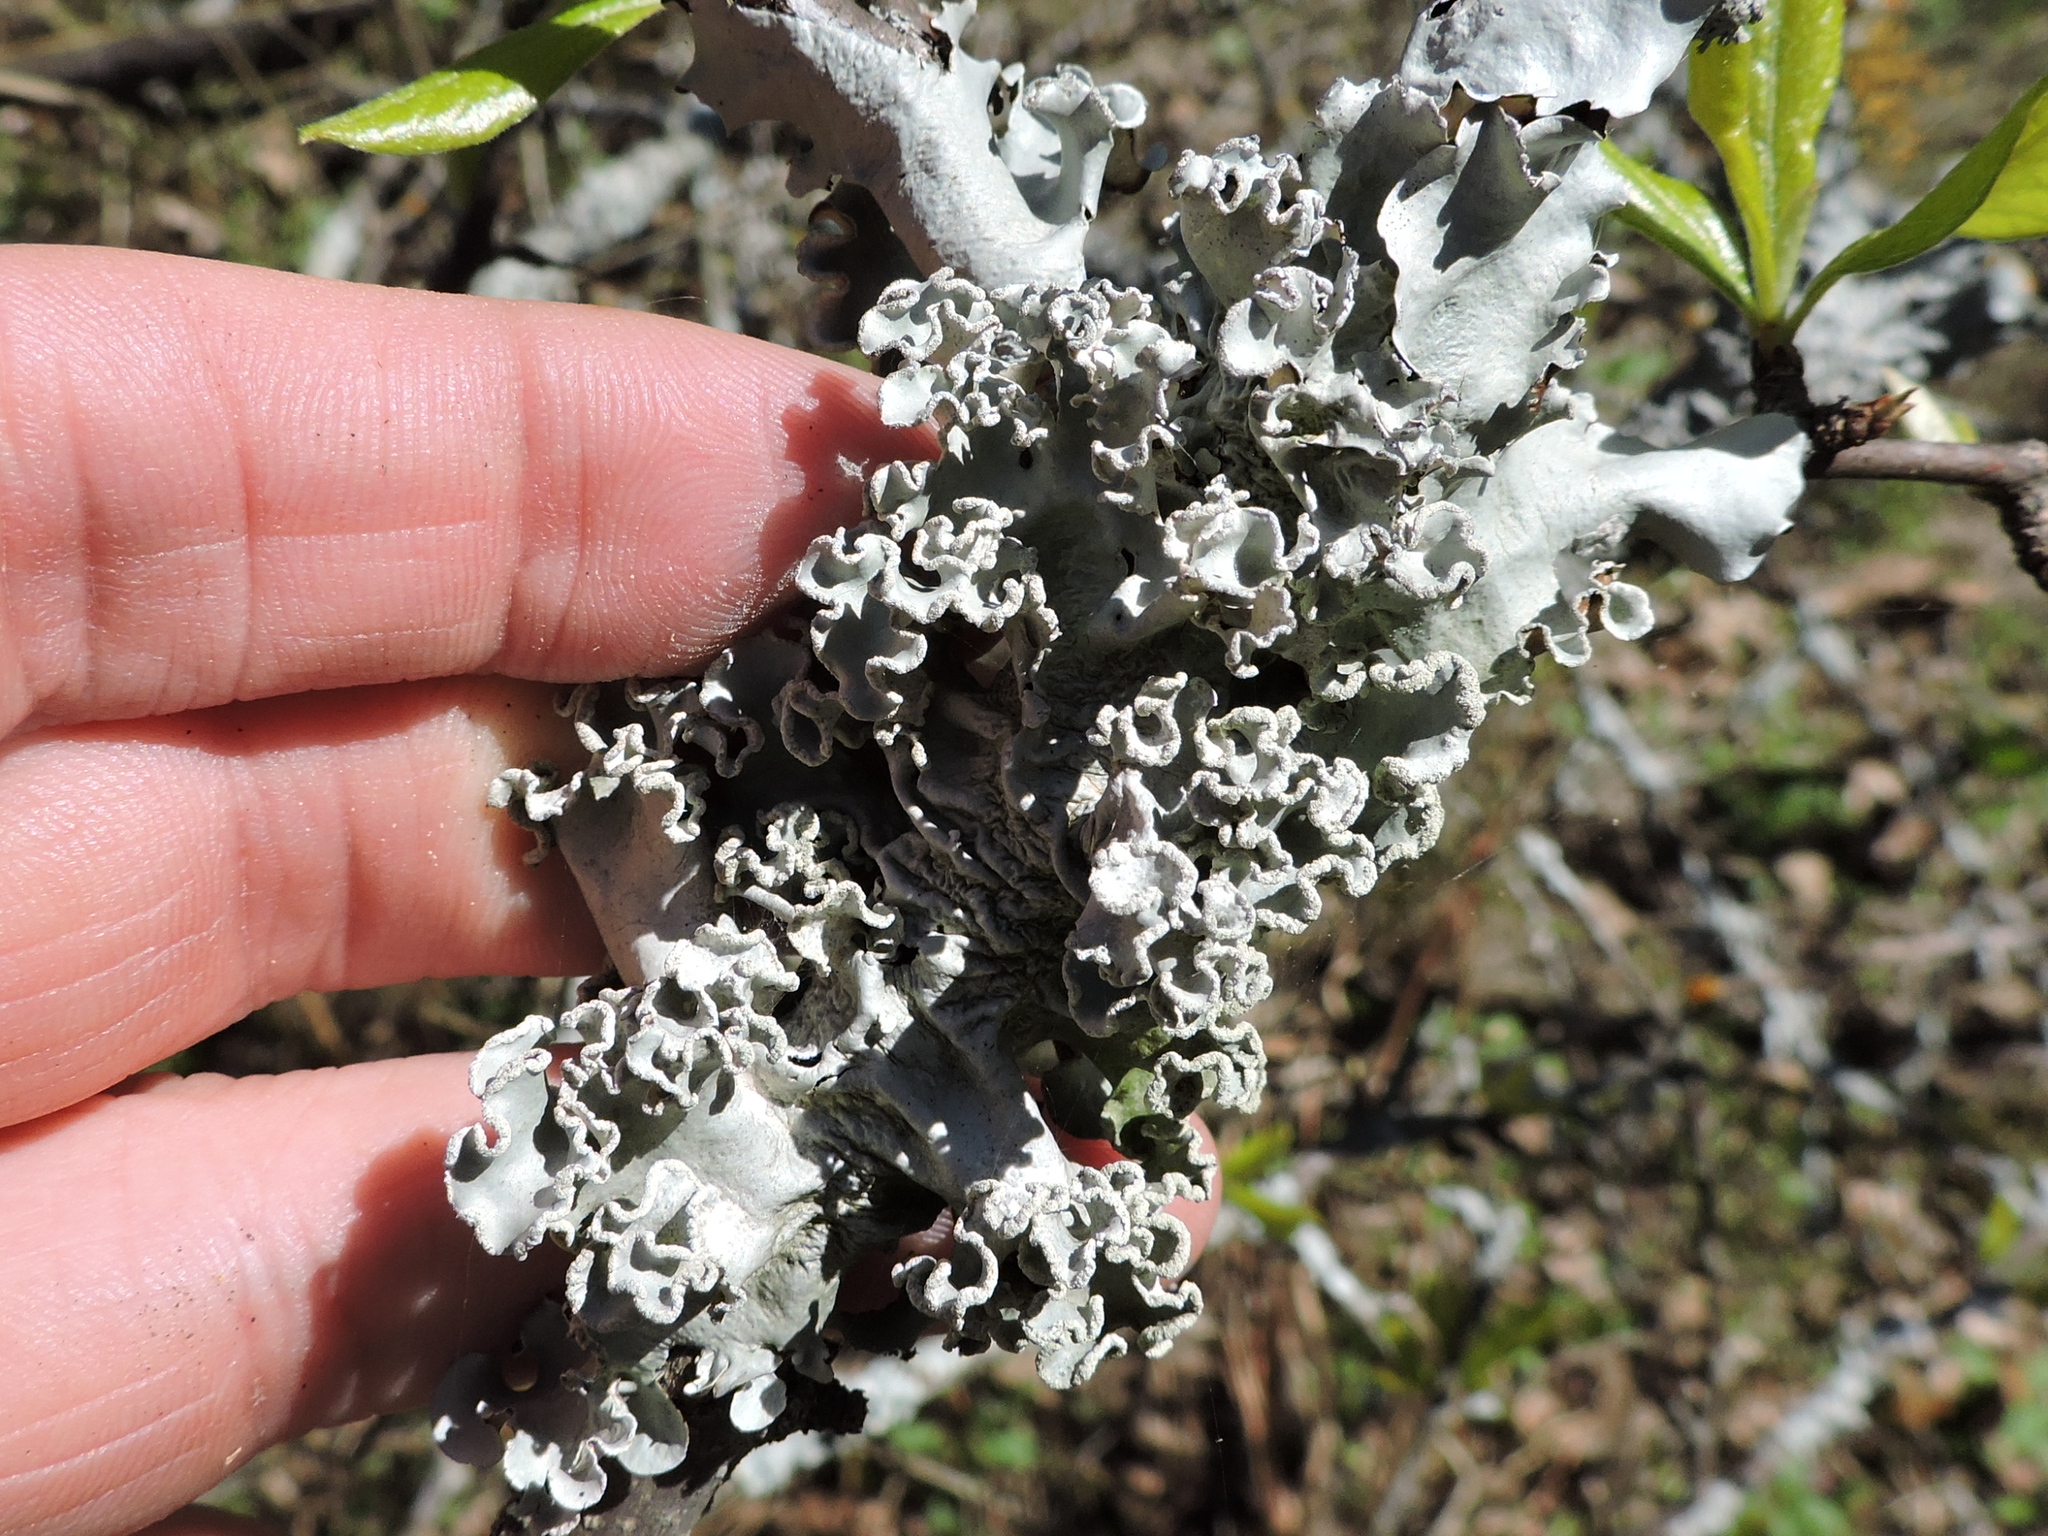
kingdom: Fungi
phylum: Ascomycota
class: Lecanoromycetes
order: Lecanorales
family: Parmeliaceae
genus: Parmotrema
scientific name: Parmotrema austrosinense
